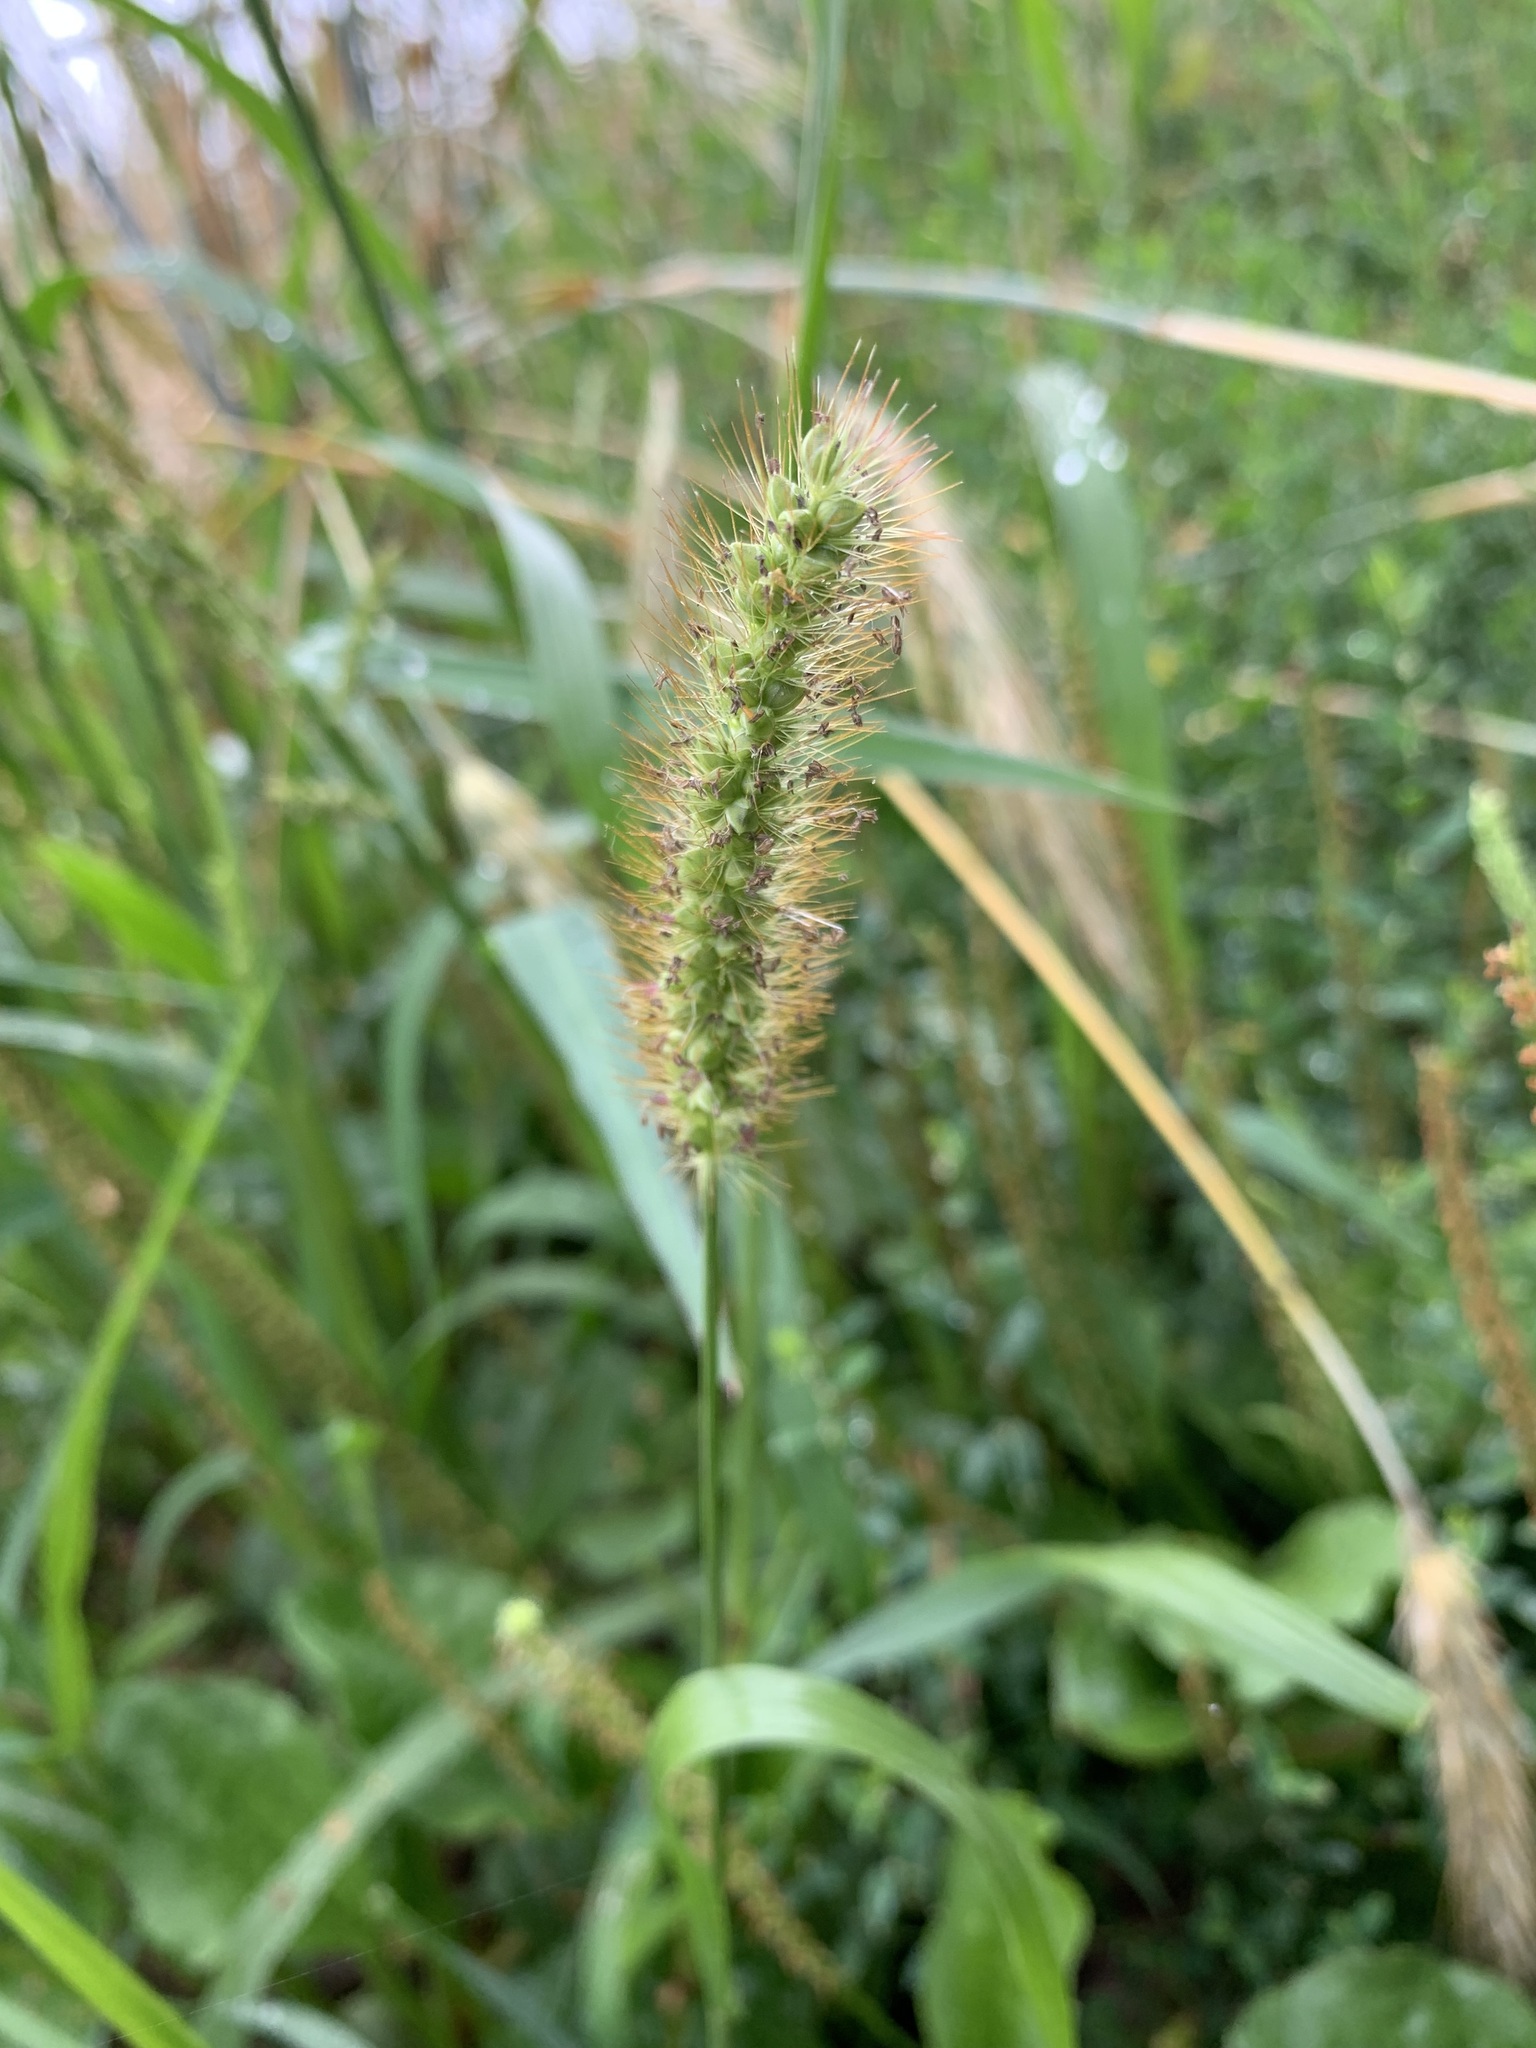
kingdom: Plantae
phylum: Tracheophyta
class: Liliopsida
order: Poales
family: Poaceae
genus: Setaria
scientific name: Setaria pumila
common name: Yellow bristle-grass
